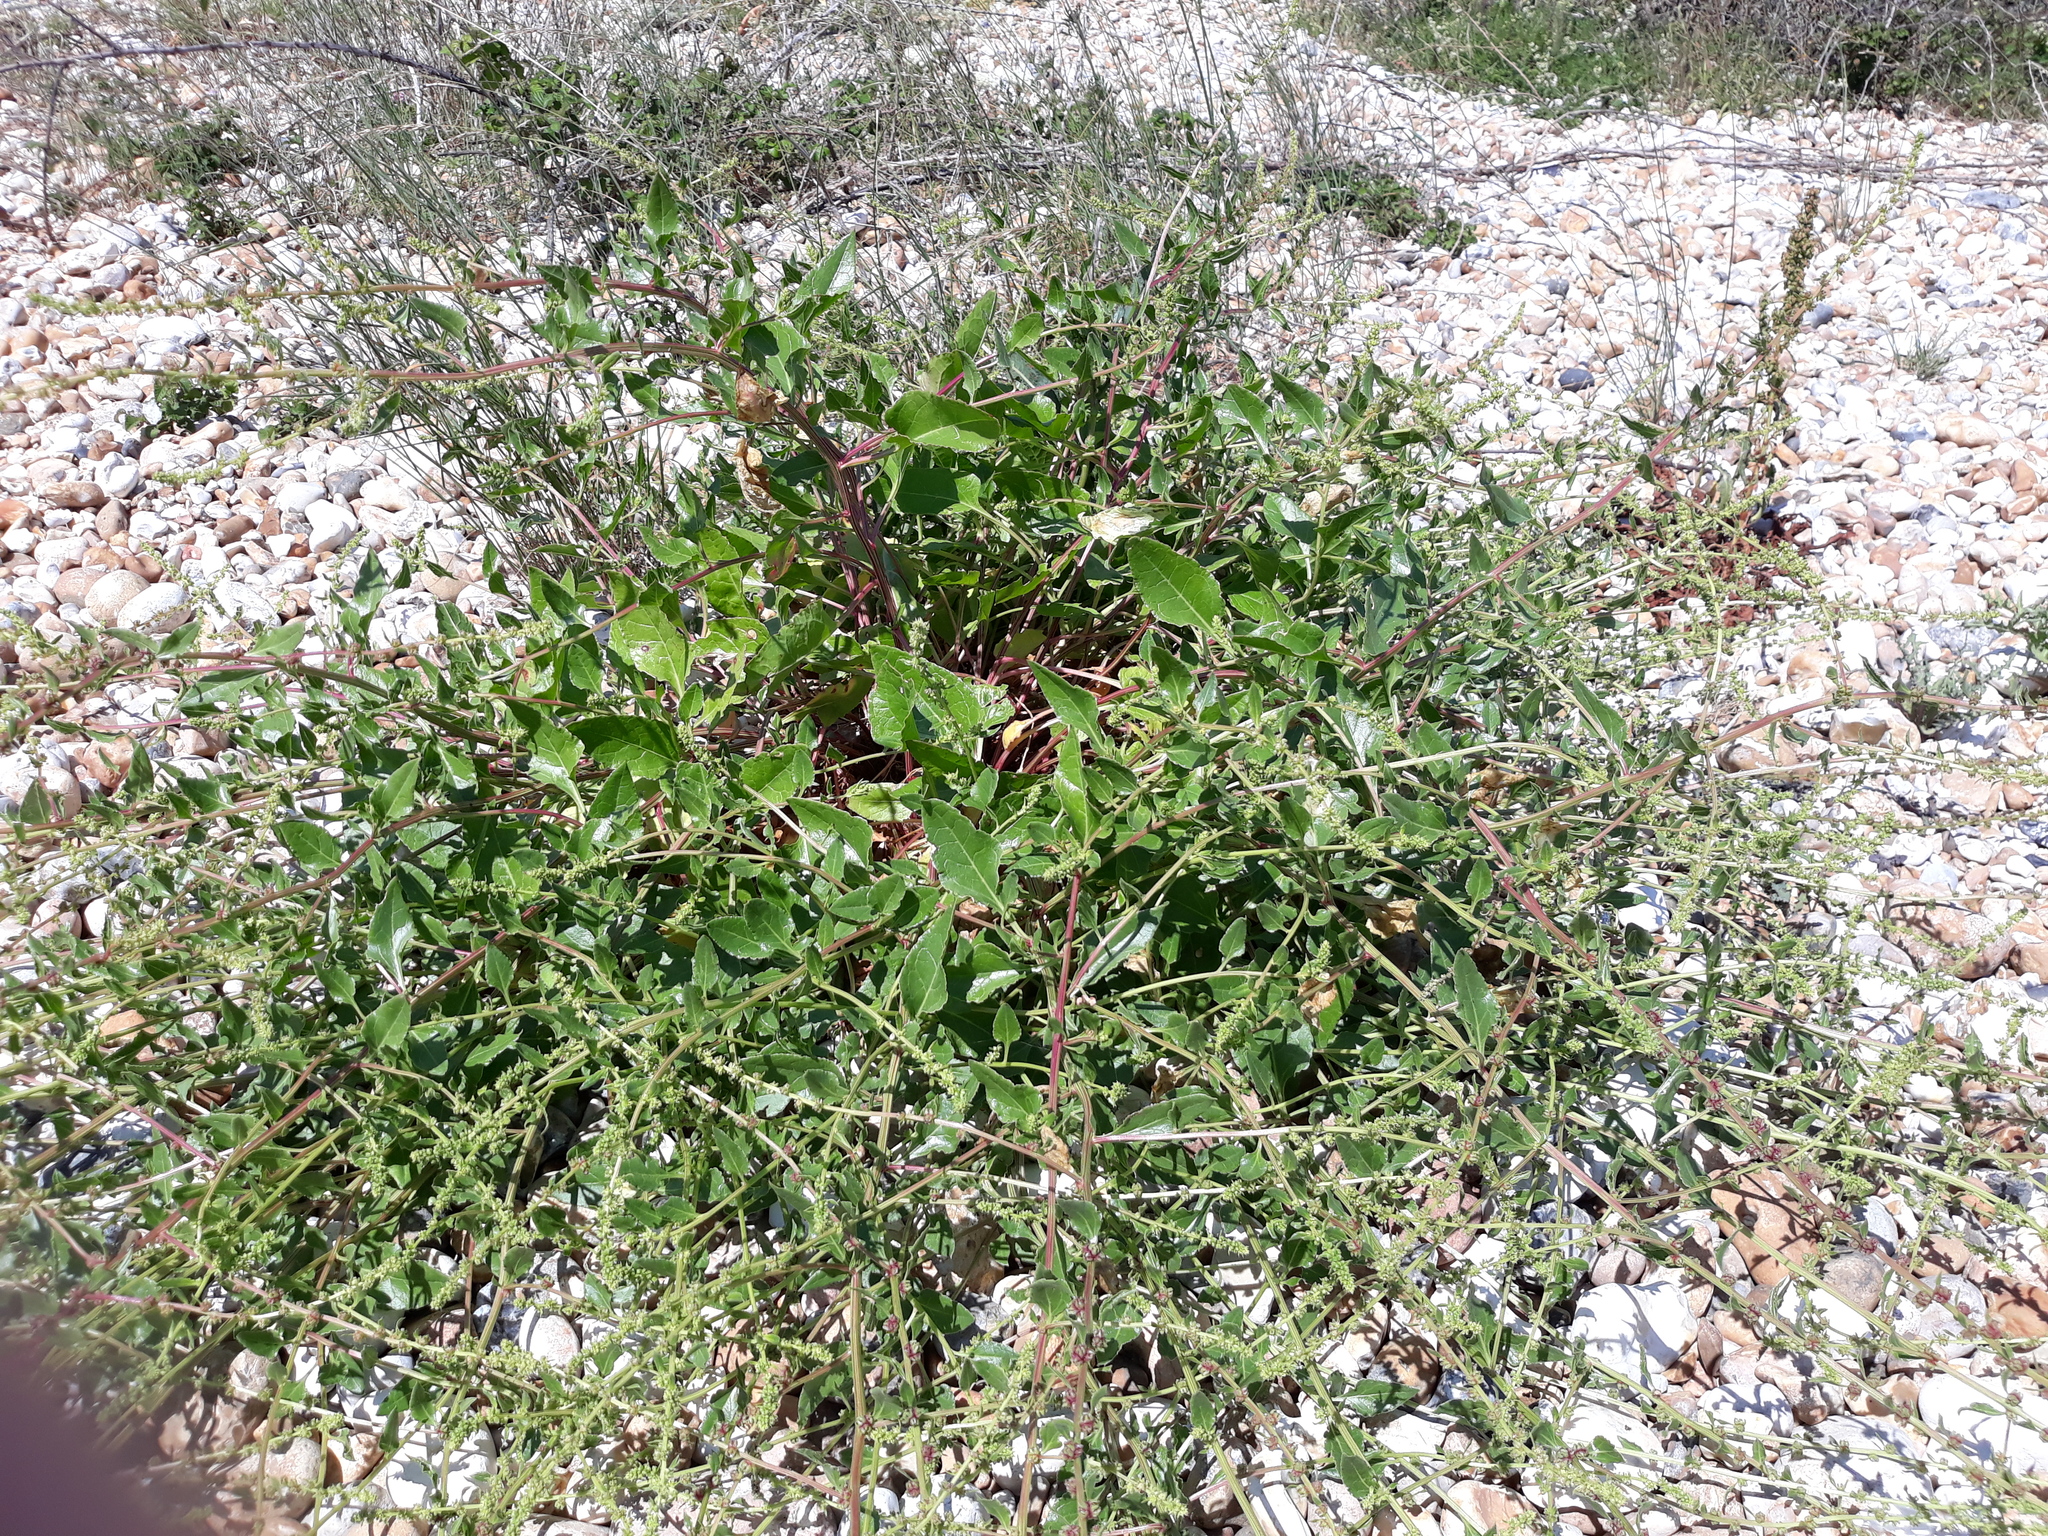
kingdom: Plantae
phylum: Tracheophyta
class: Magnoliopsida
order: Caryophyllales
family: Amaranthaceae
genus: Beta
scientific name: Beta vulgaris
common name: Beet
